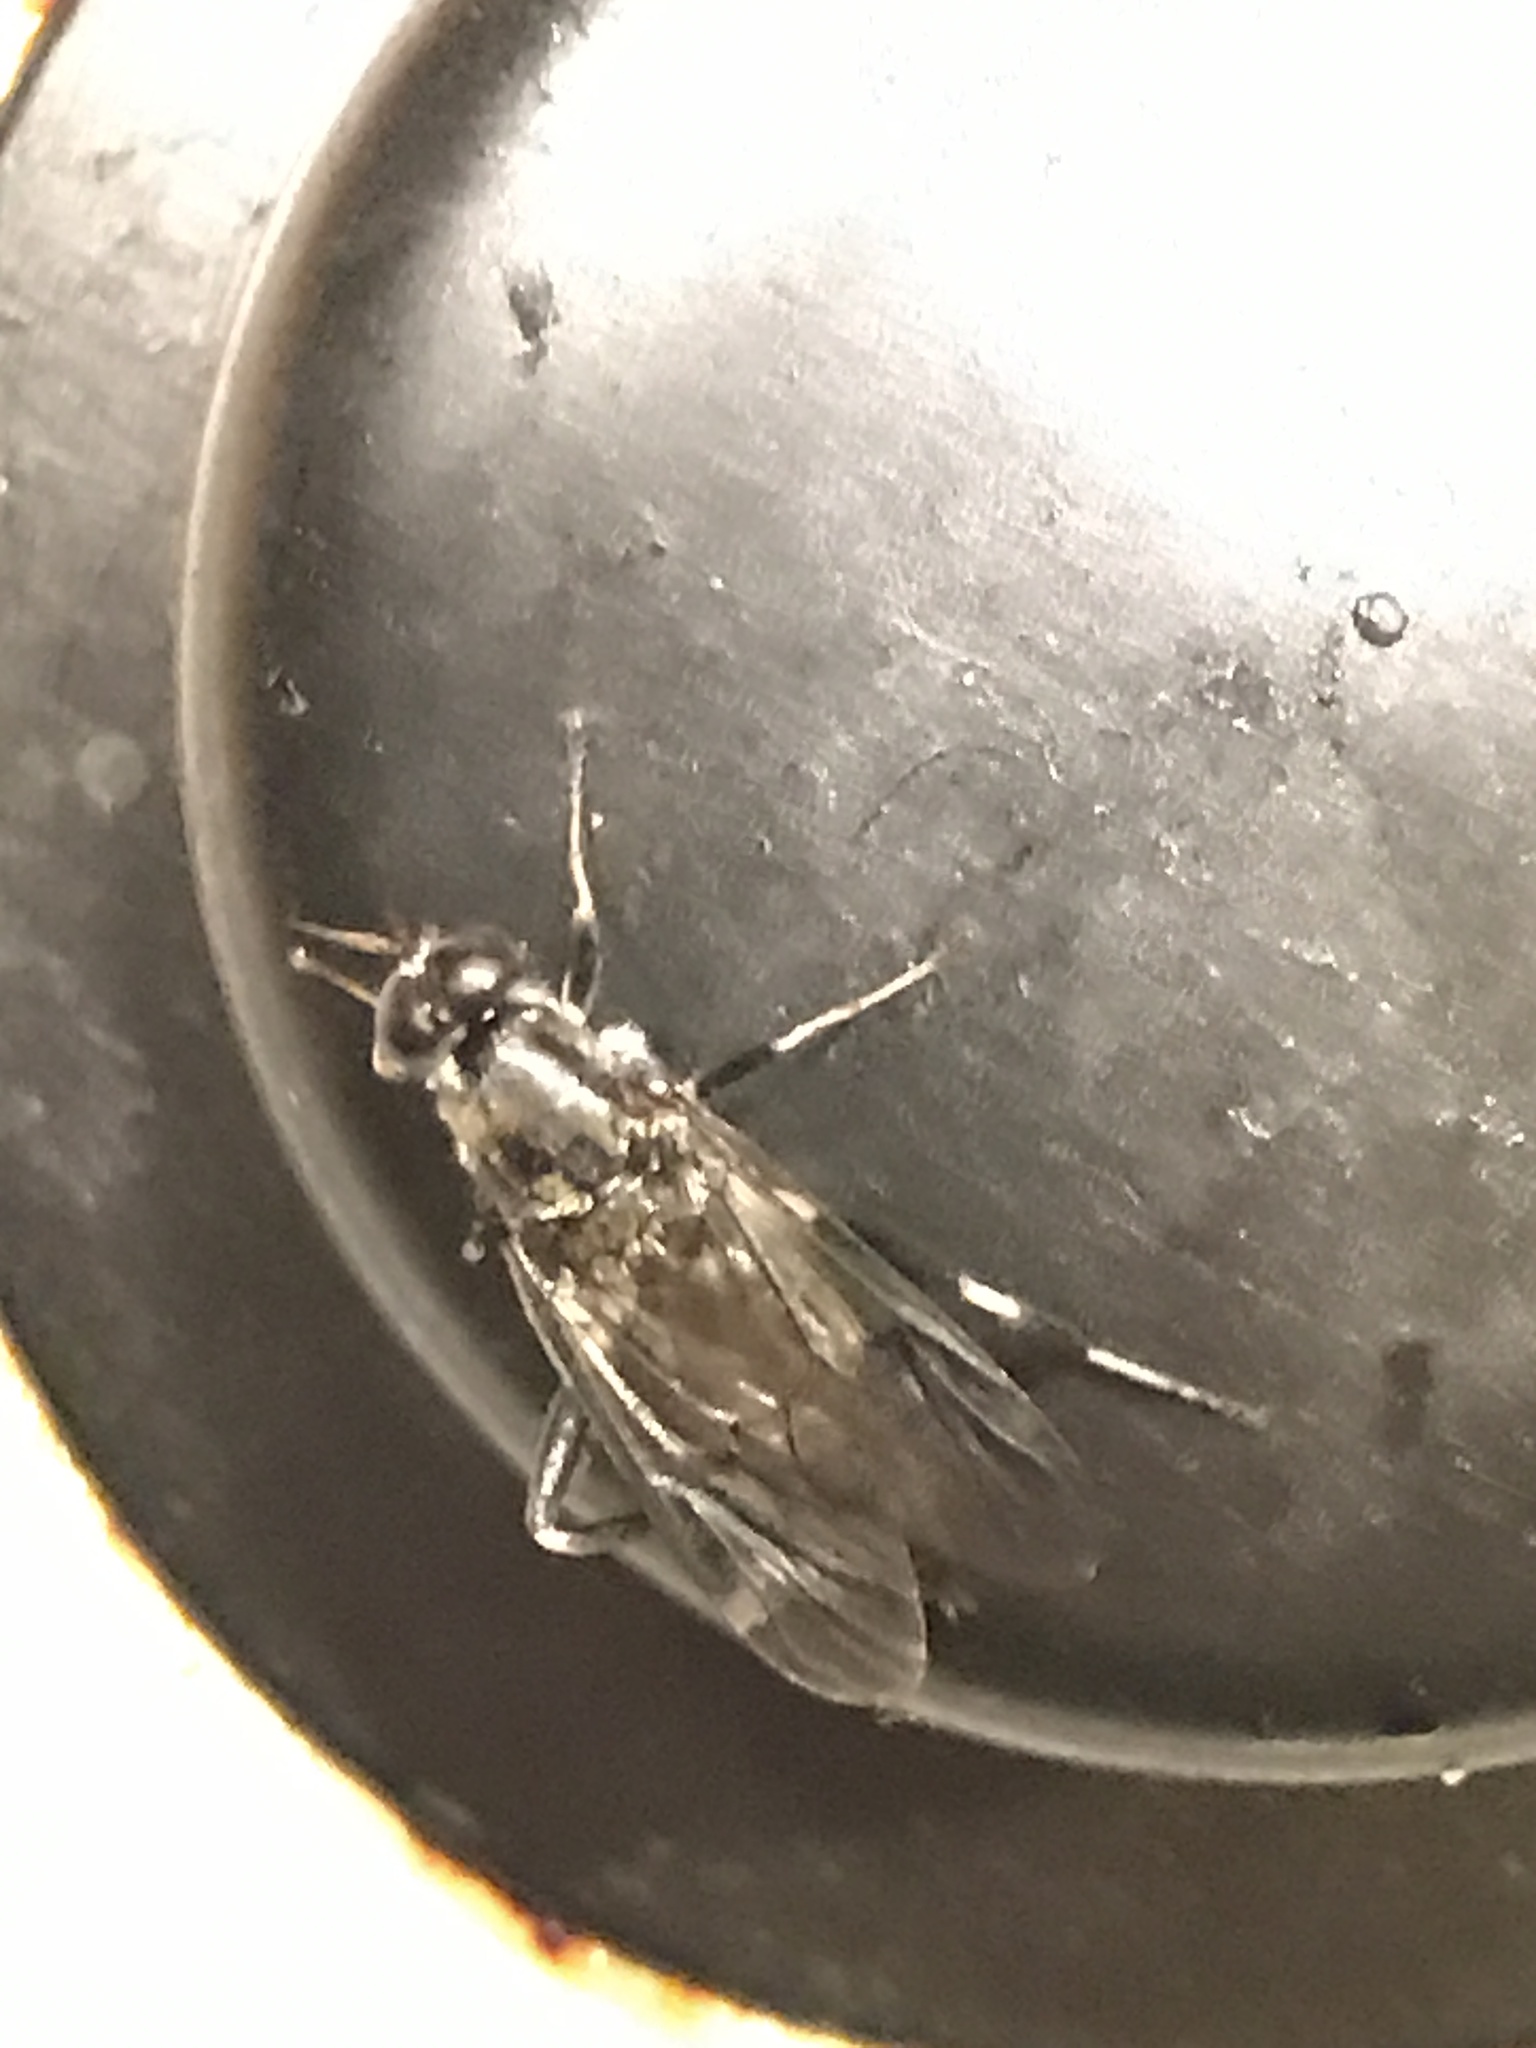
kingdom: Animalia
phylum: Arthropoda
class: Insecta
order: Diptera
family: Stratiomyidae
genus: Exaireta
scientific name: Exaireta spinigera
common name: Blue soldier fly
